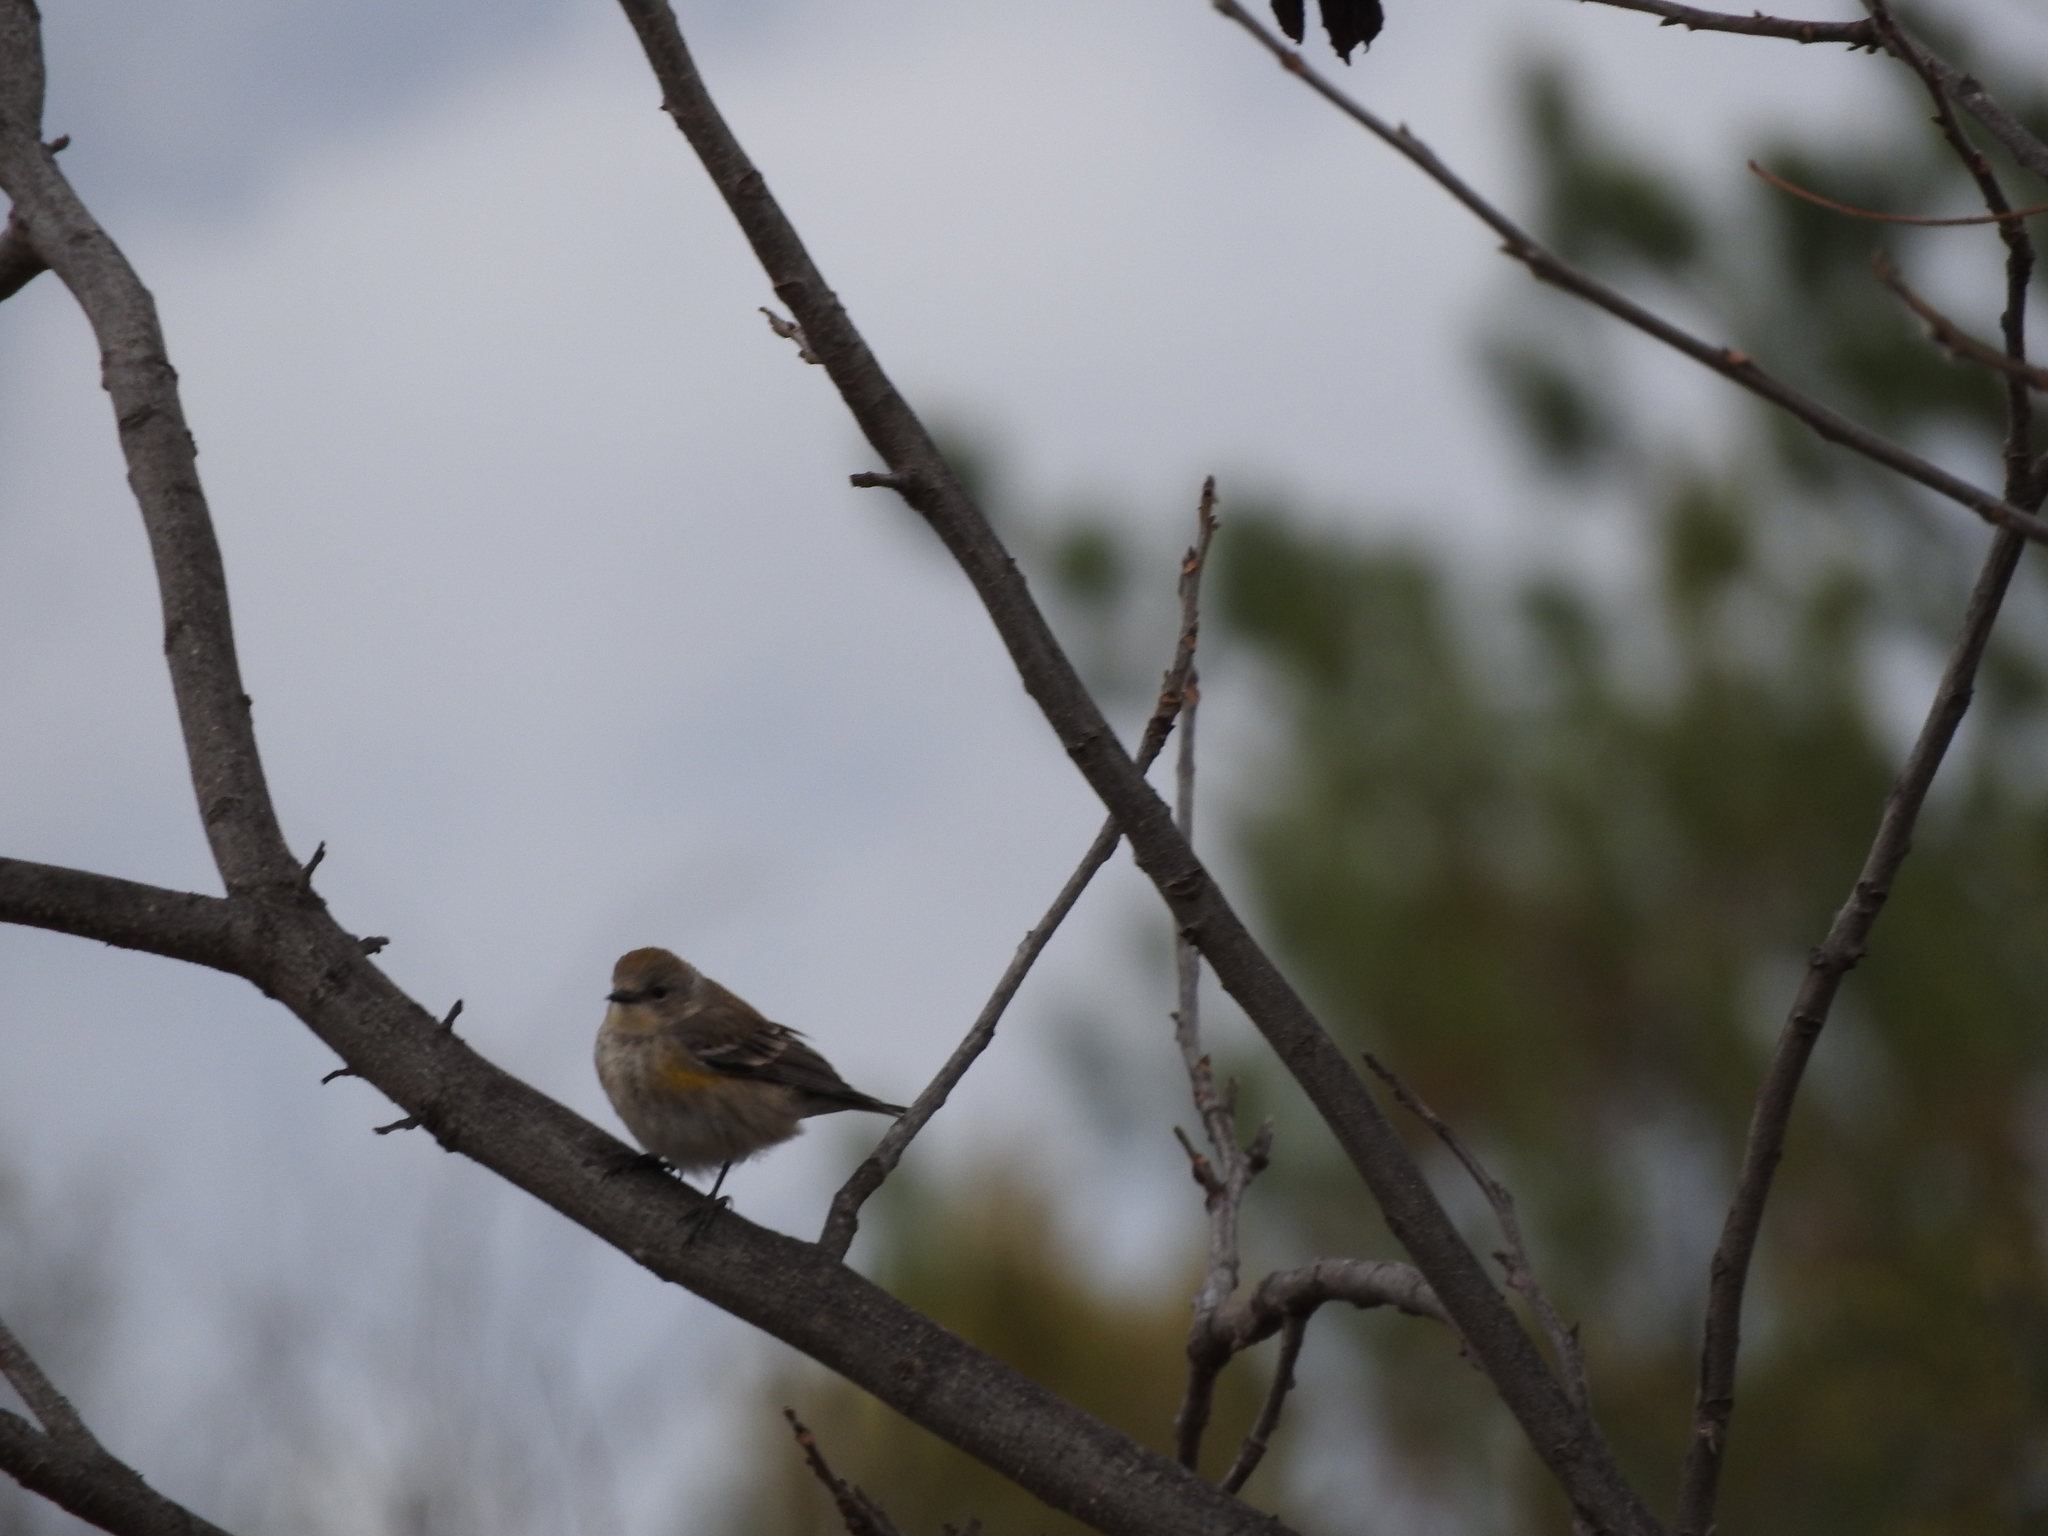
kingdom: Animalia
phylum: Chordata
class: Aves
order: Passeriformes
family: Parulidae
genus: Setophaga
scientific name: Setophaga coronata
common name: Myrtle warbler
